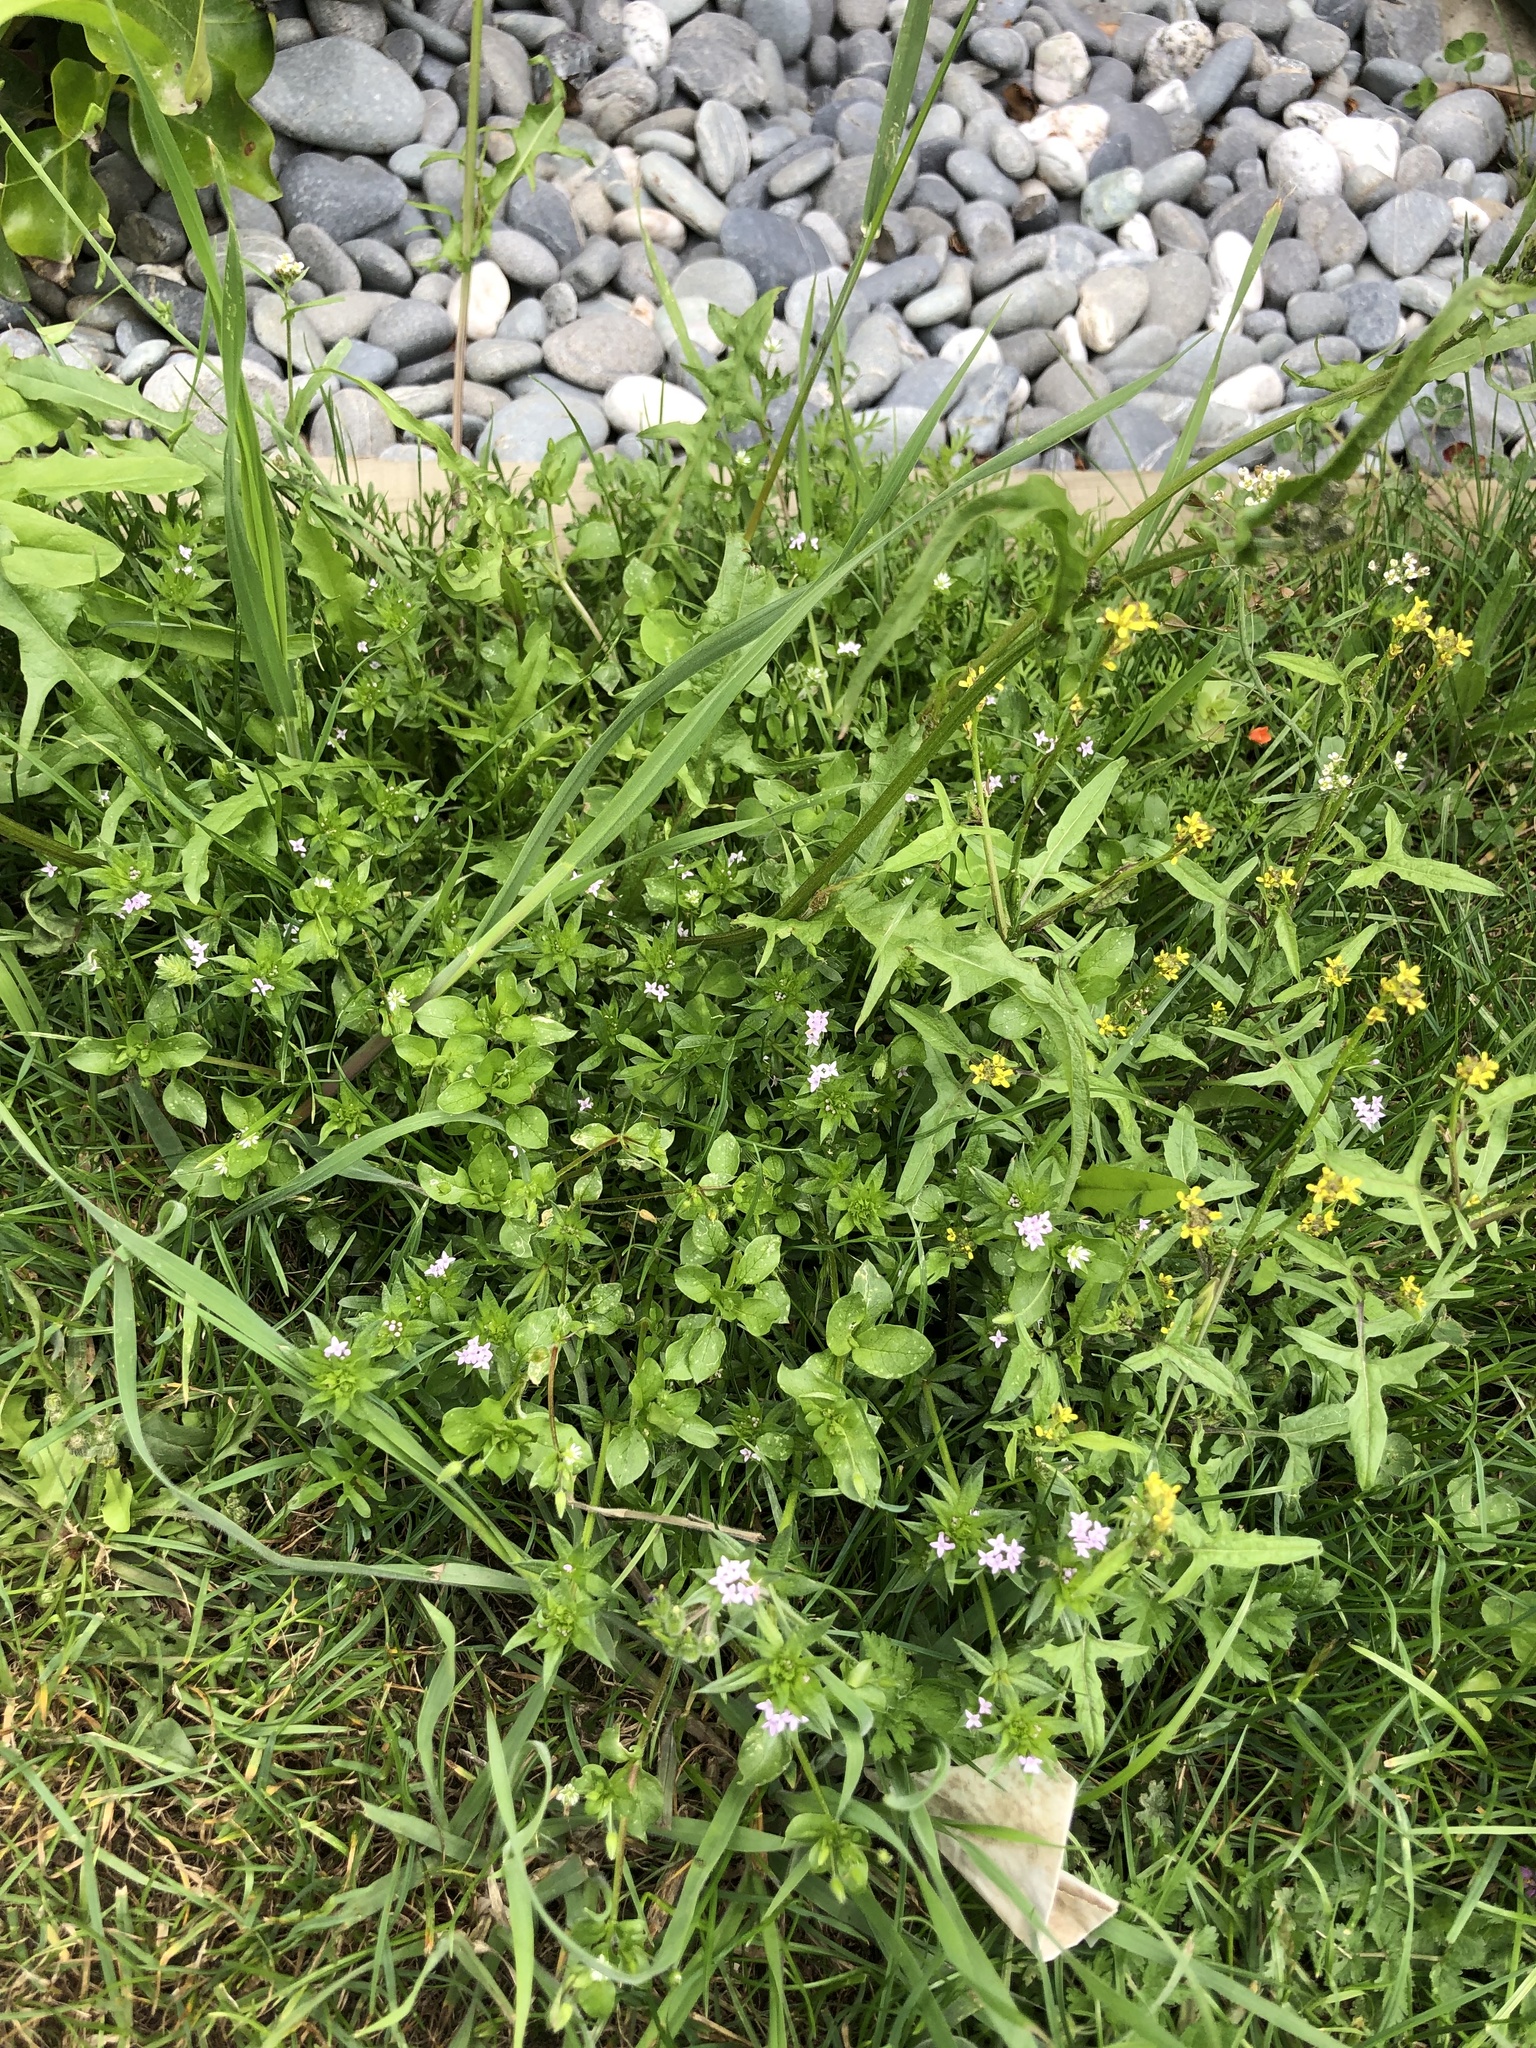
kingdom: Plantae
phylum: Tracheophyta
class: Magnoliopsida
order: Gentianales
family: Rubiaceae
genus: Sherardia
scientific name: Sherardia arvensis
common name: Field madder
